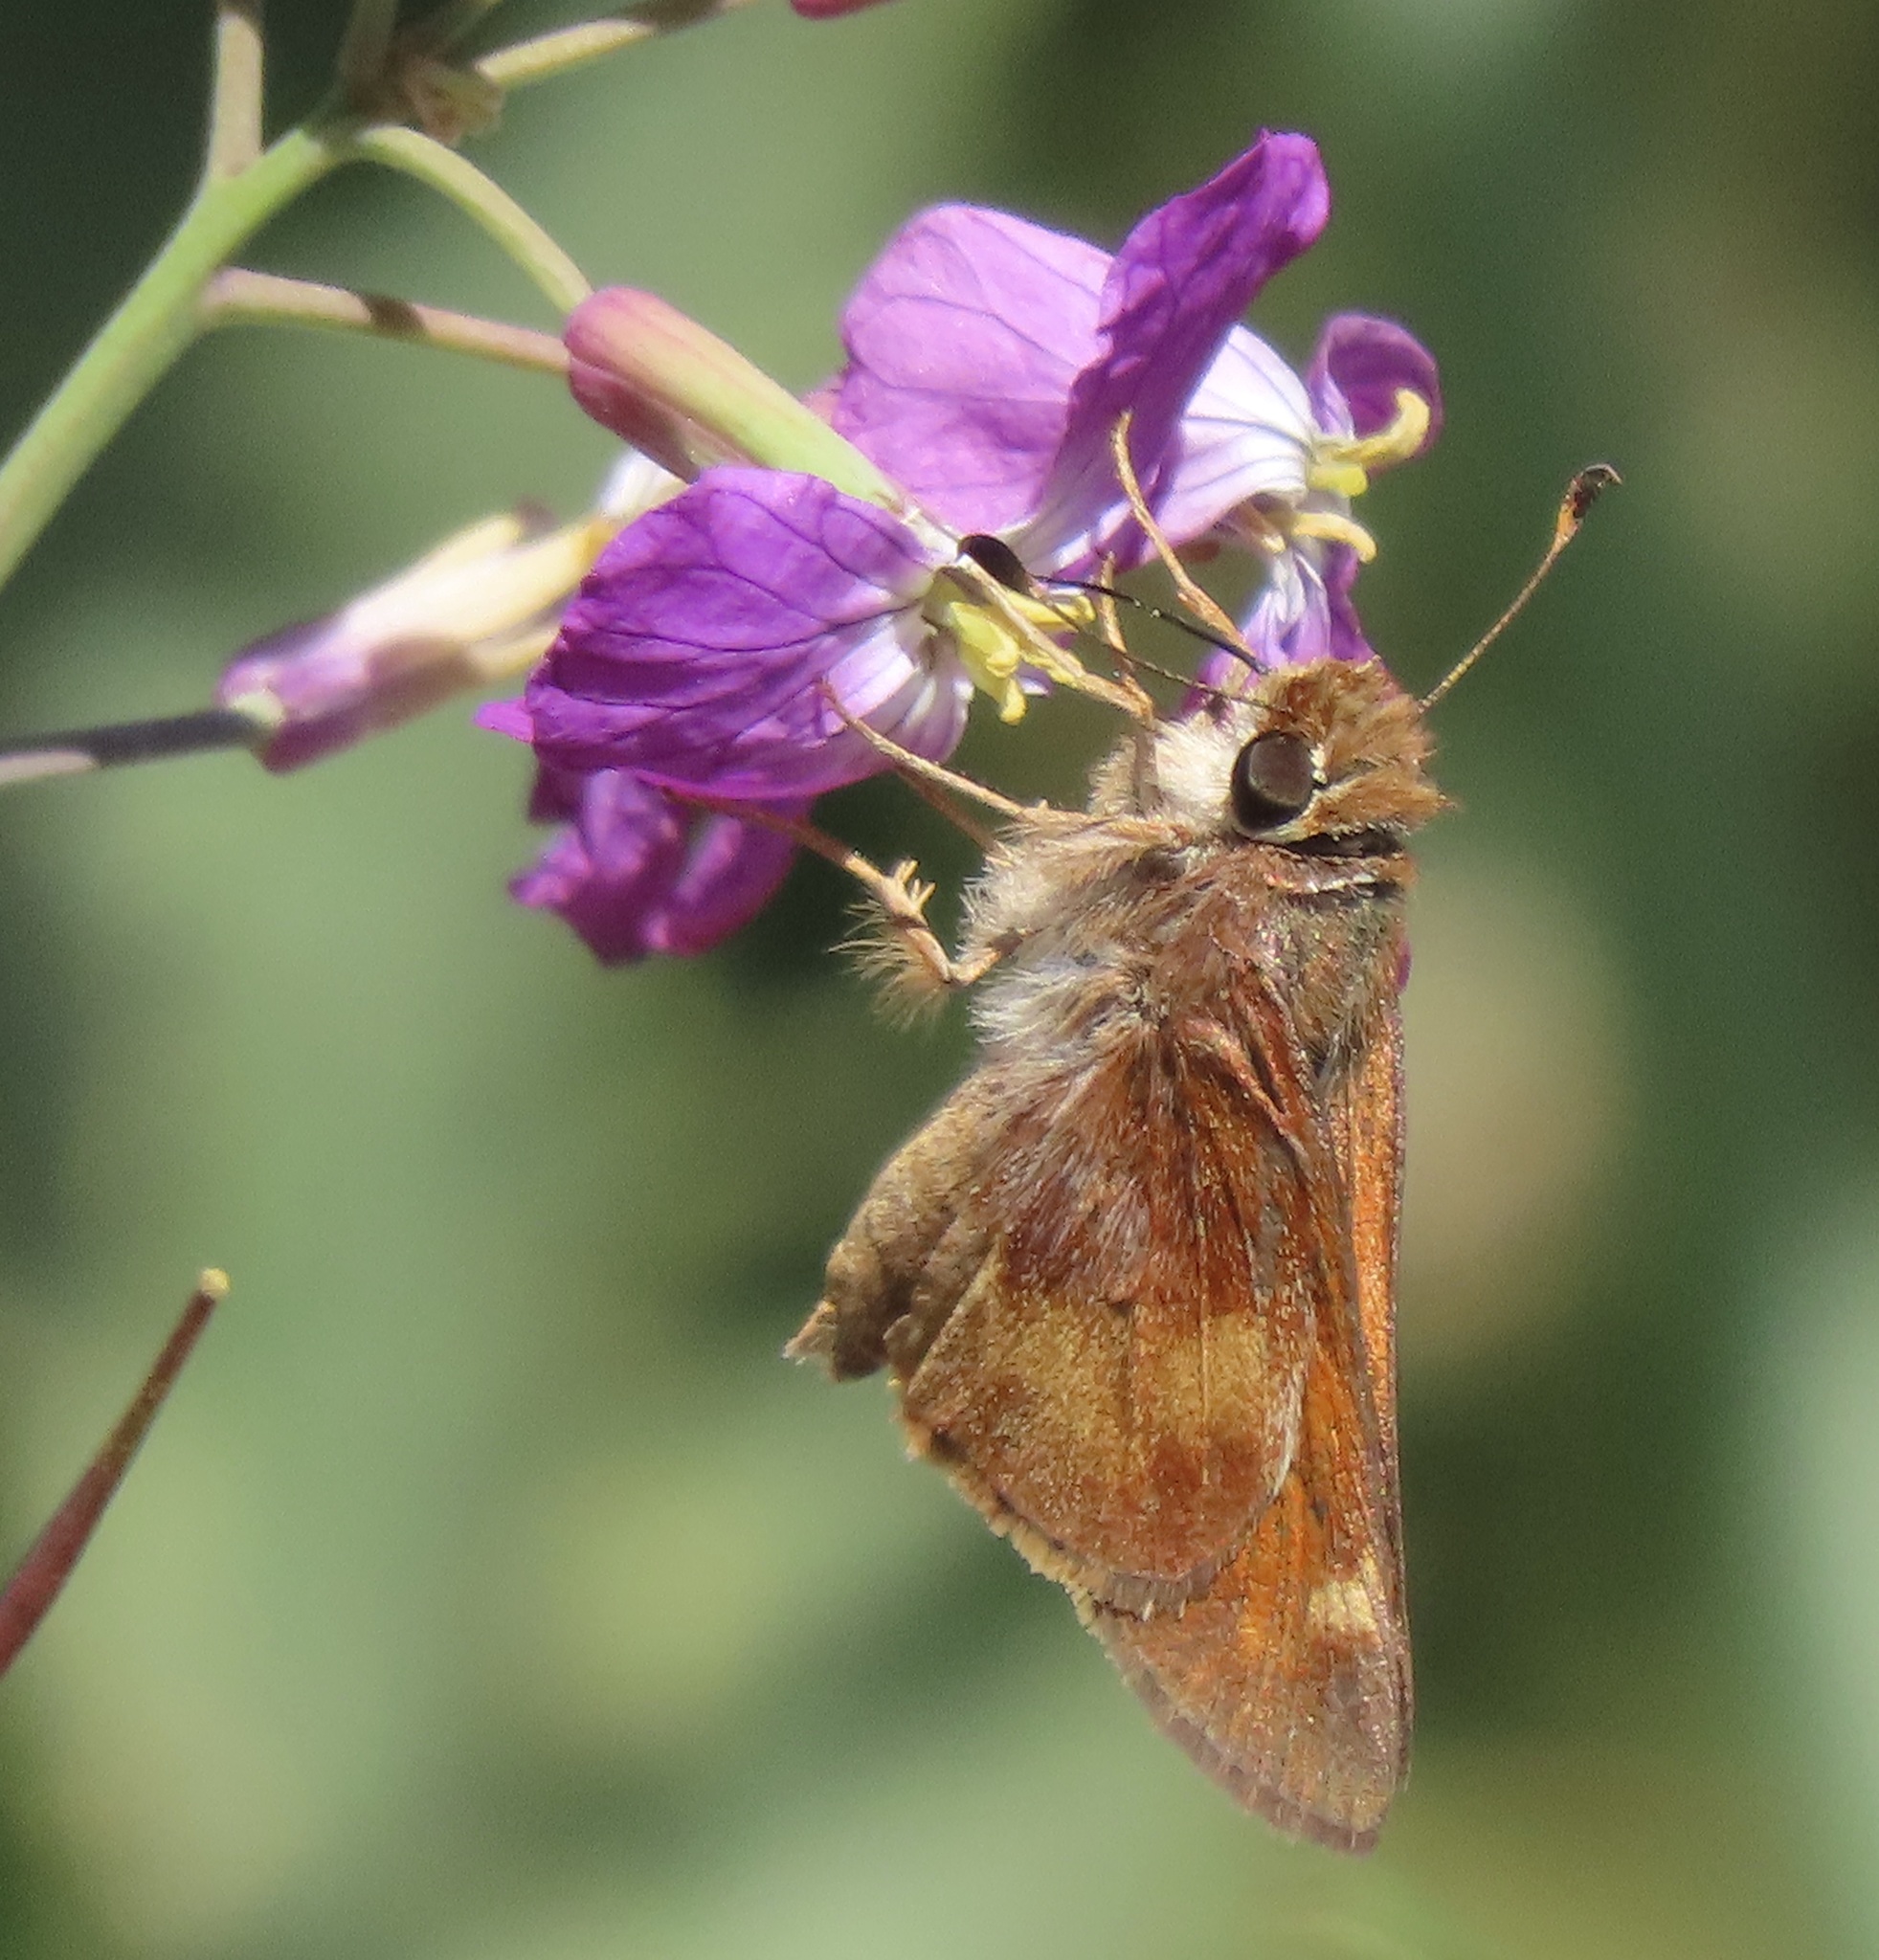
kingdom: Animalia
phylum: Arthropoda
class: Insecta
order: Lepidoptera
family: Hesperiidae
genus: Lon
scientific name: Lon melane
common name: Umber skipper
